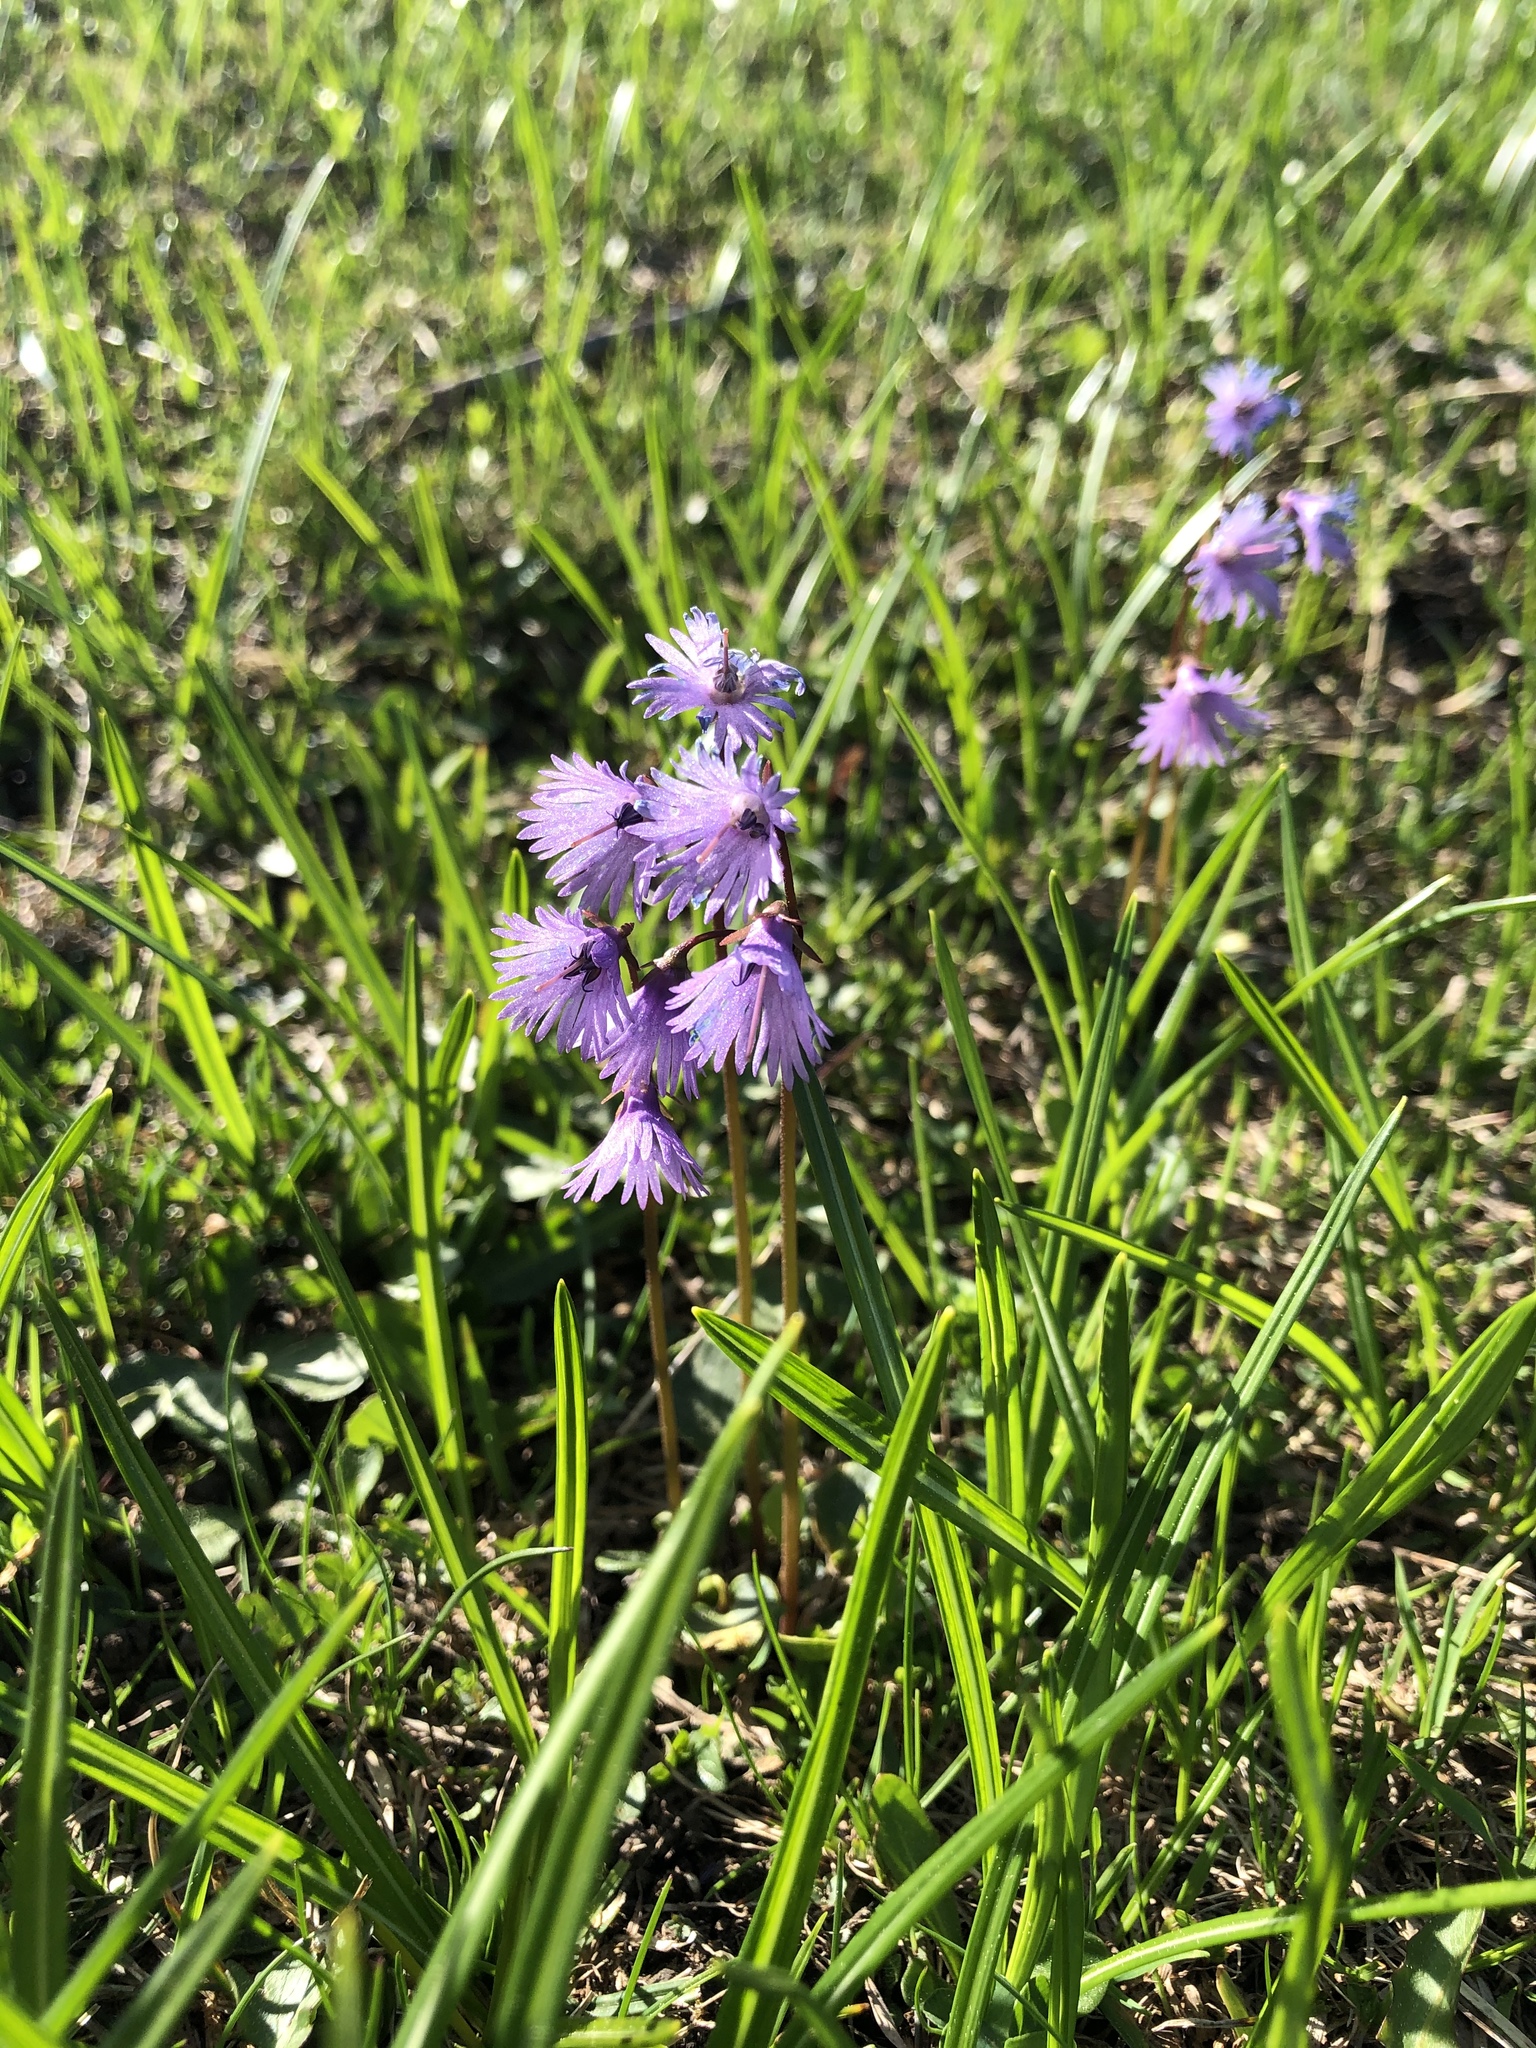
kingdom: Plantae
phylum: Tracheophyta
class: Magnoliopsida
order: Ericales
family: Primulaceae
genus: Soldanella
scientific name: Soldanella alpina
